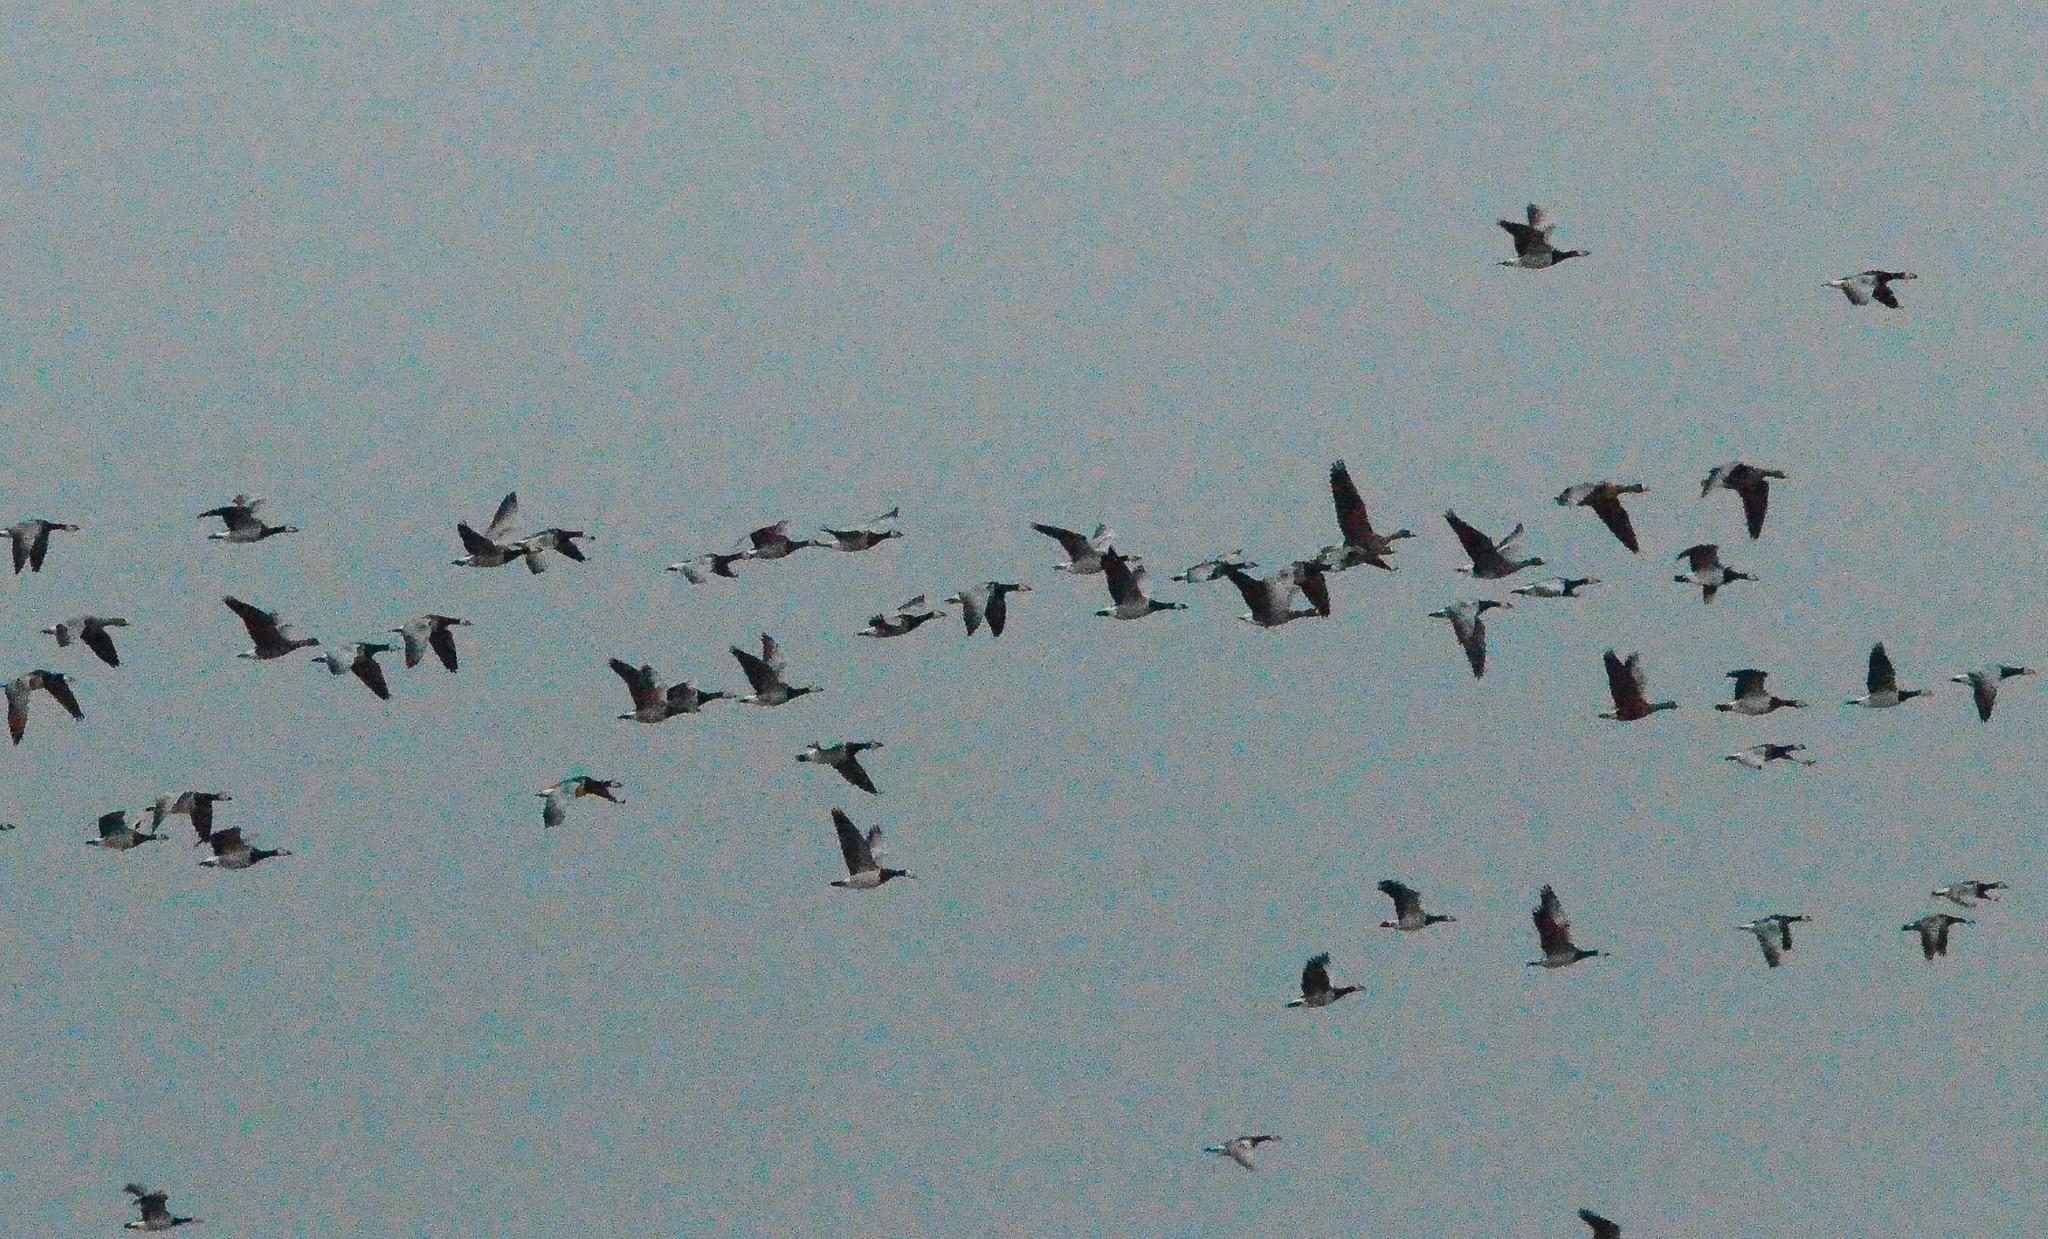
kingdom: Animalia
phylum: Chordata
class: Aves
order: Anseriformes
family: Anatidae
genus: Branta
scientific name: Branta leucopsis
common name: Barnacle goose
